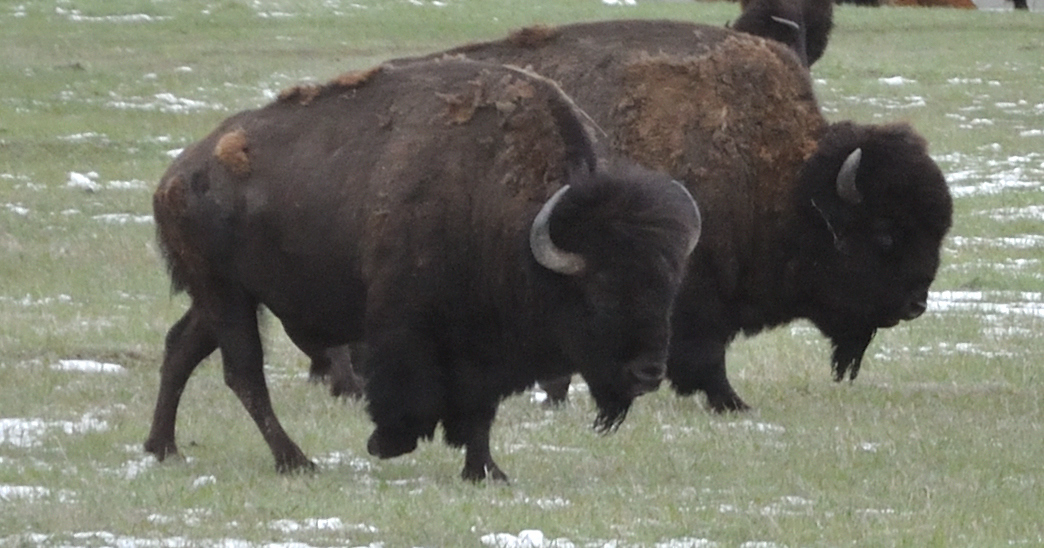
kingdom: Animalia
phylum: Chordata
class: Mammalia
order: Artiodactyla
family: Bovidae
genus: Bison
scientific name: Bison bison
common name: American bison
